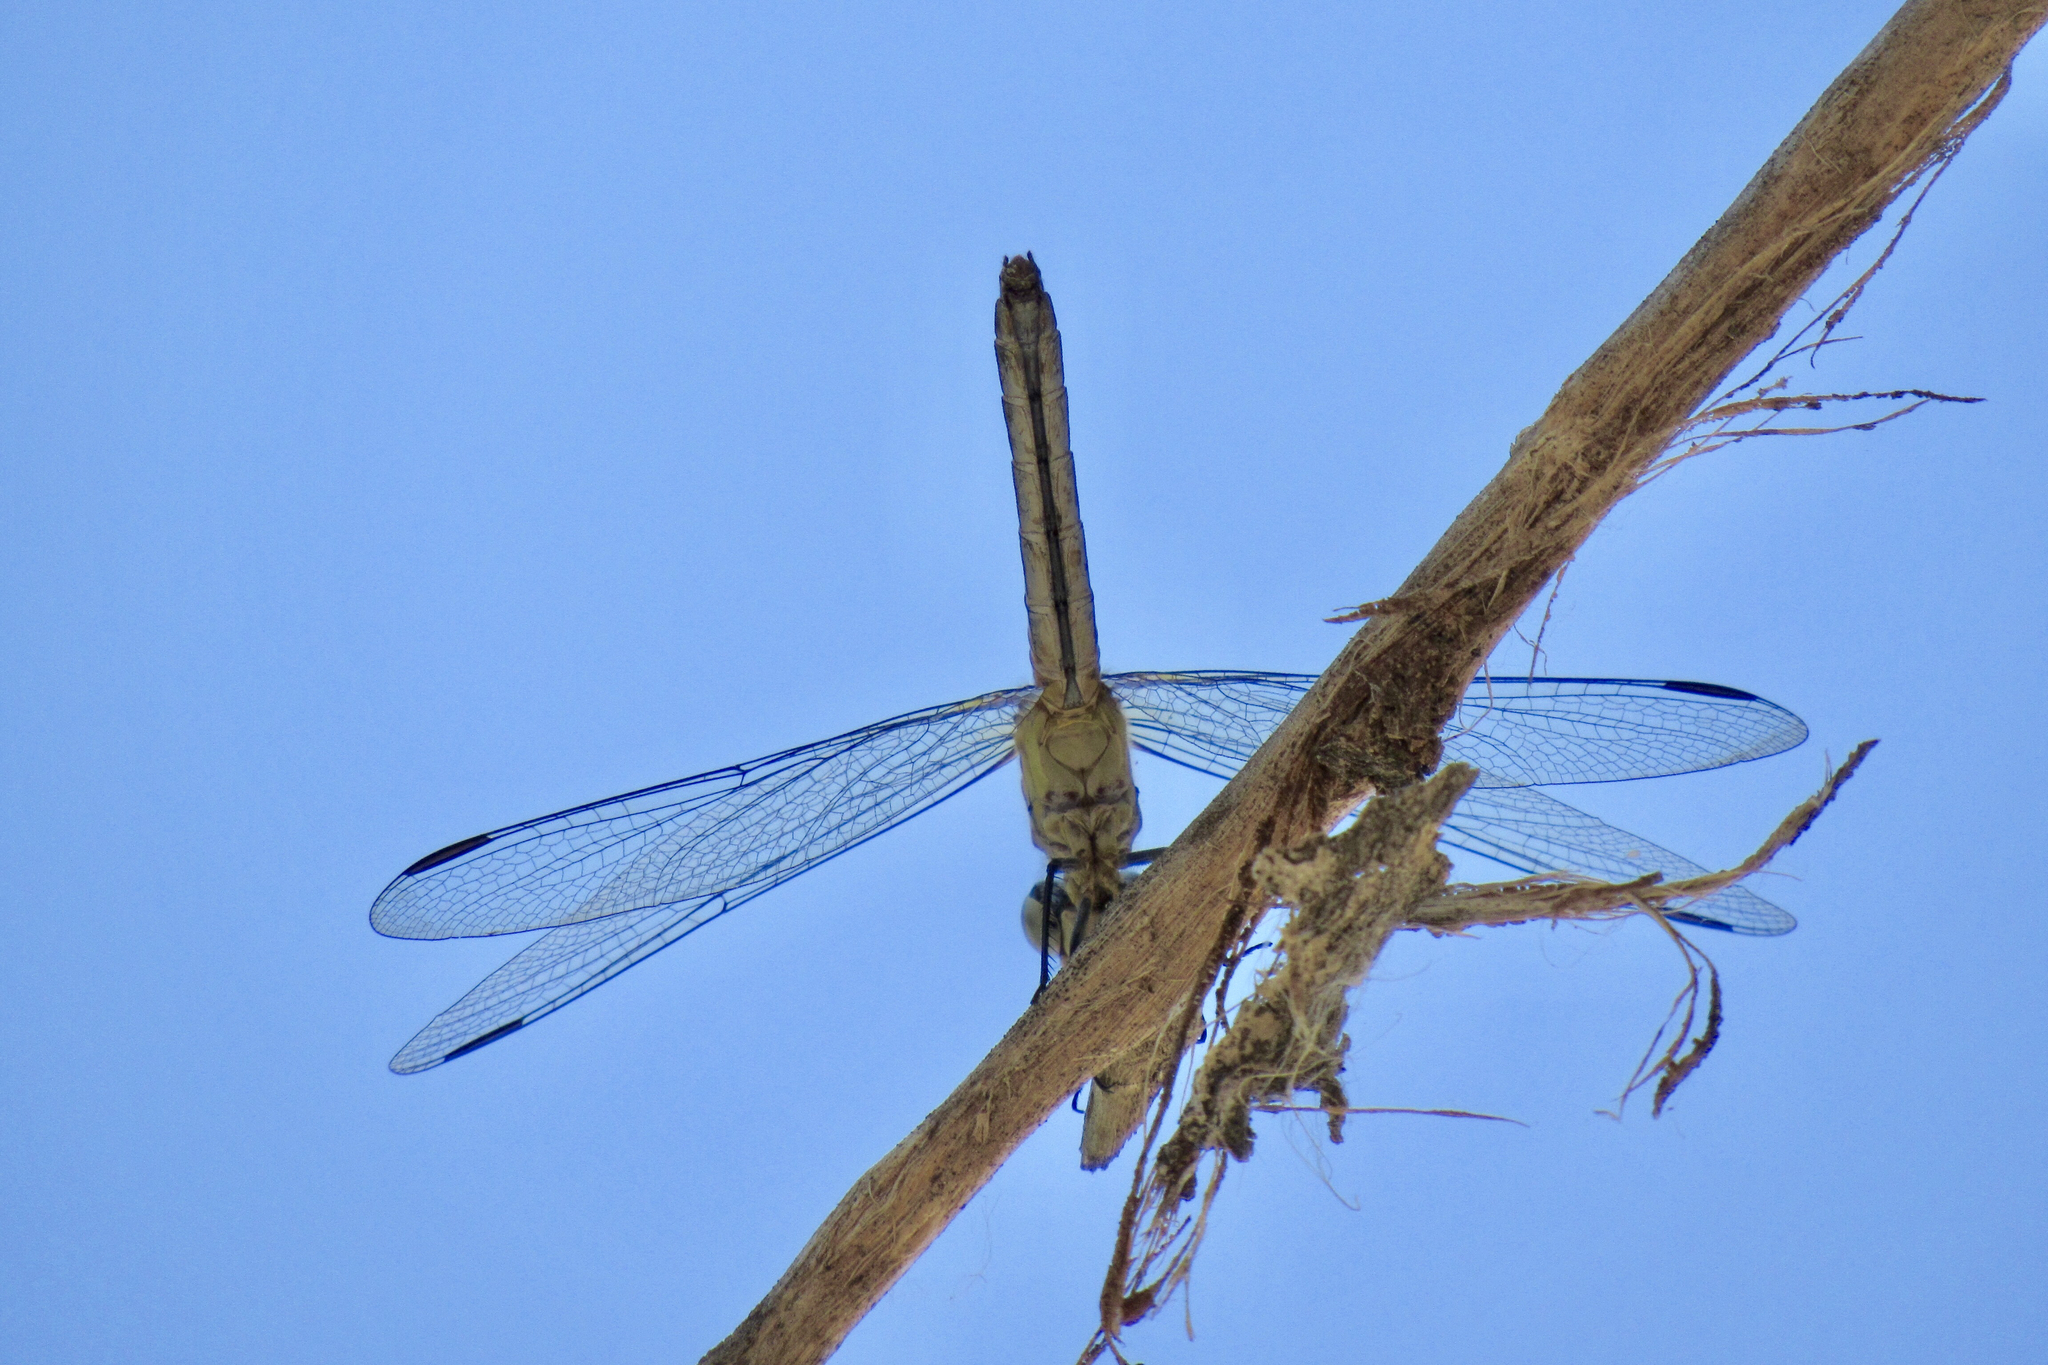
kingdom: Animalia
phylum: Arthropoda
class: Insecta
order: Odonata
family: Libellulidae
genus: Pachydiplax
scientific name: Pachydiplax longipennis
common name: Blue dasher
